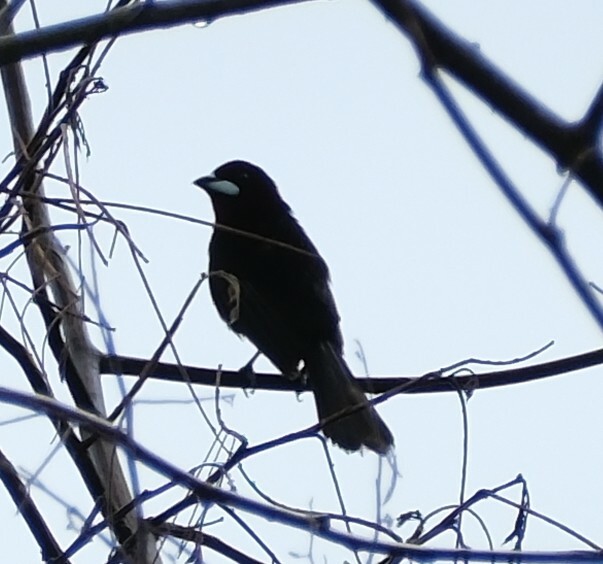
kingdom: Animalia
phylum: Chordata
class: Aves
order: Passeriformes
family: Thraupidae
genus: Ramphocelus
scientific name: Ramphocelus carbo
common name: Silver-beaked tanager
